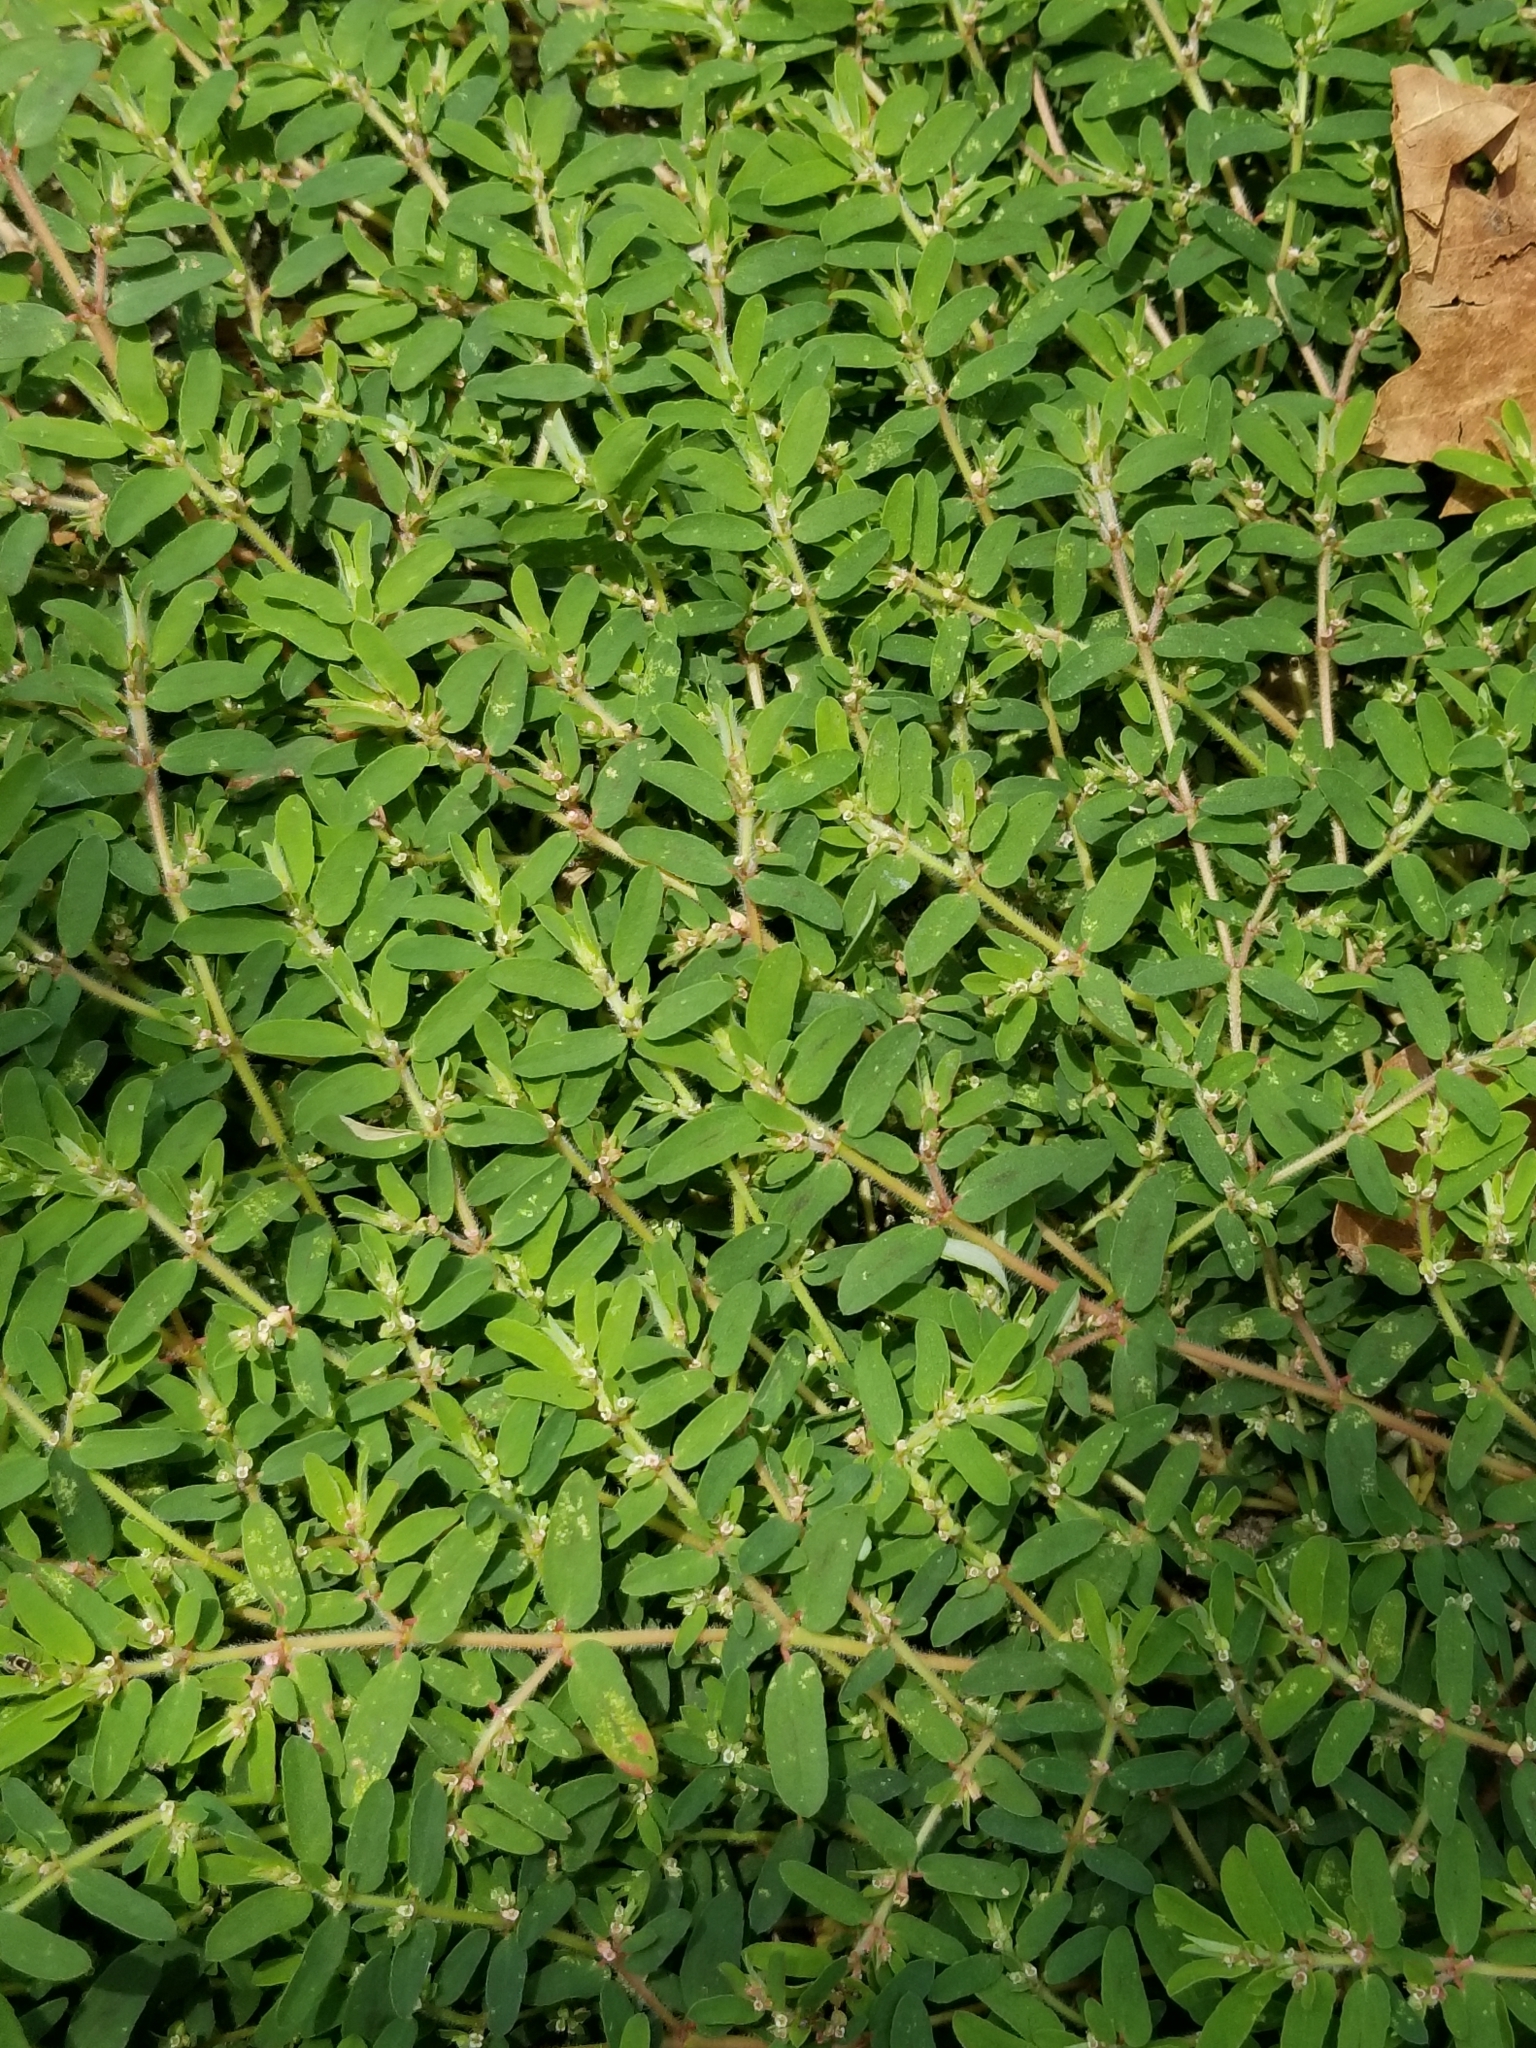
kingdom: Plantae
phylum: Tracheophyta
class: Magnoliopsida
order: Malpighiales
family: Euphorbiaceae
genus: Euphorbia
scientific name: Euphorbia maculata
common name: Spotted spurge
